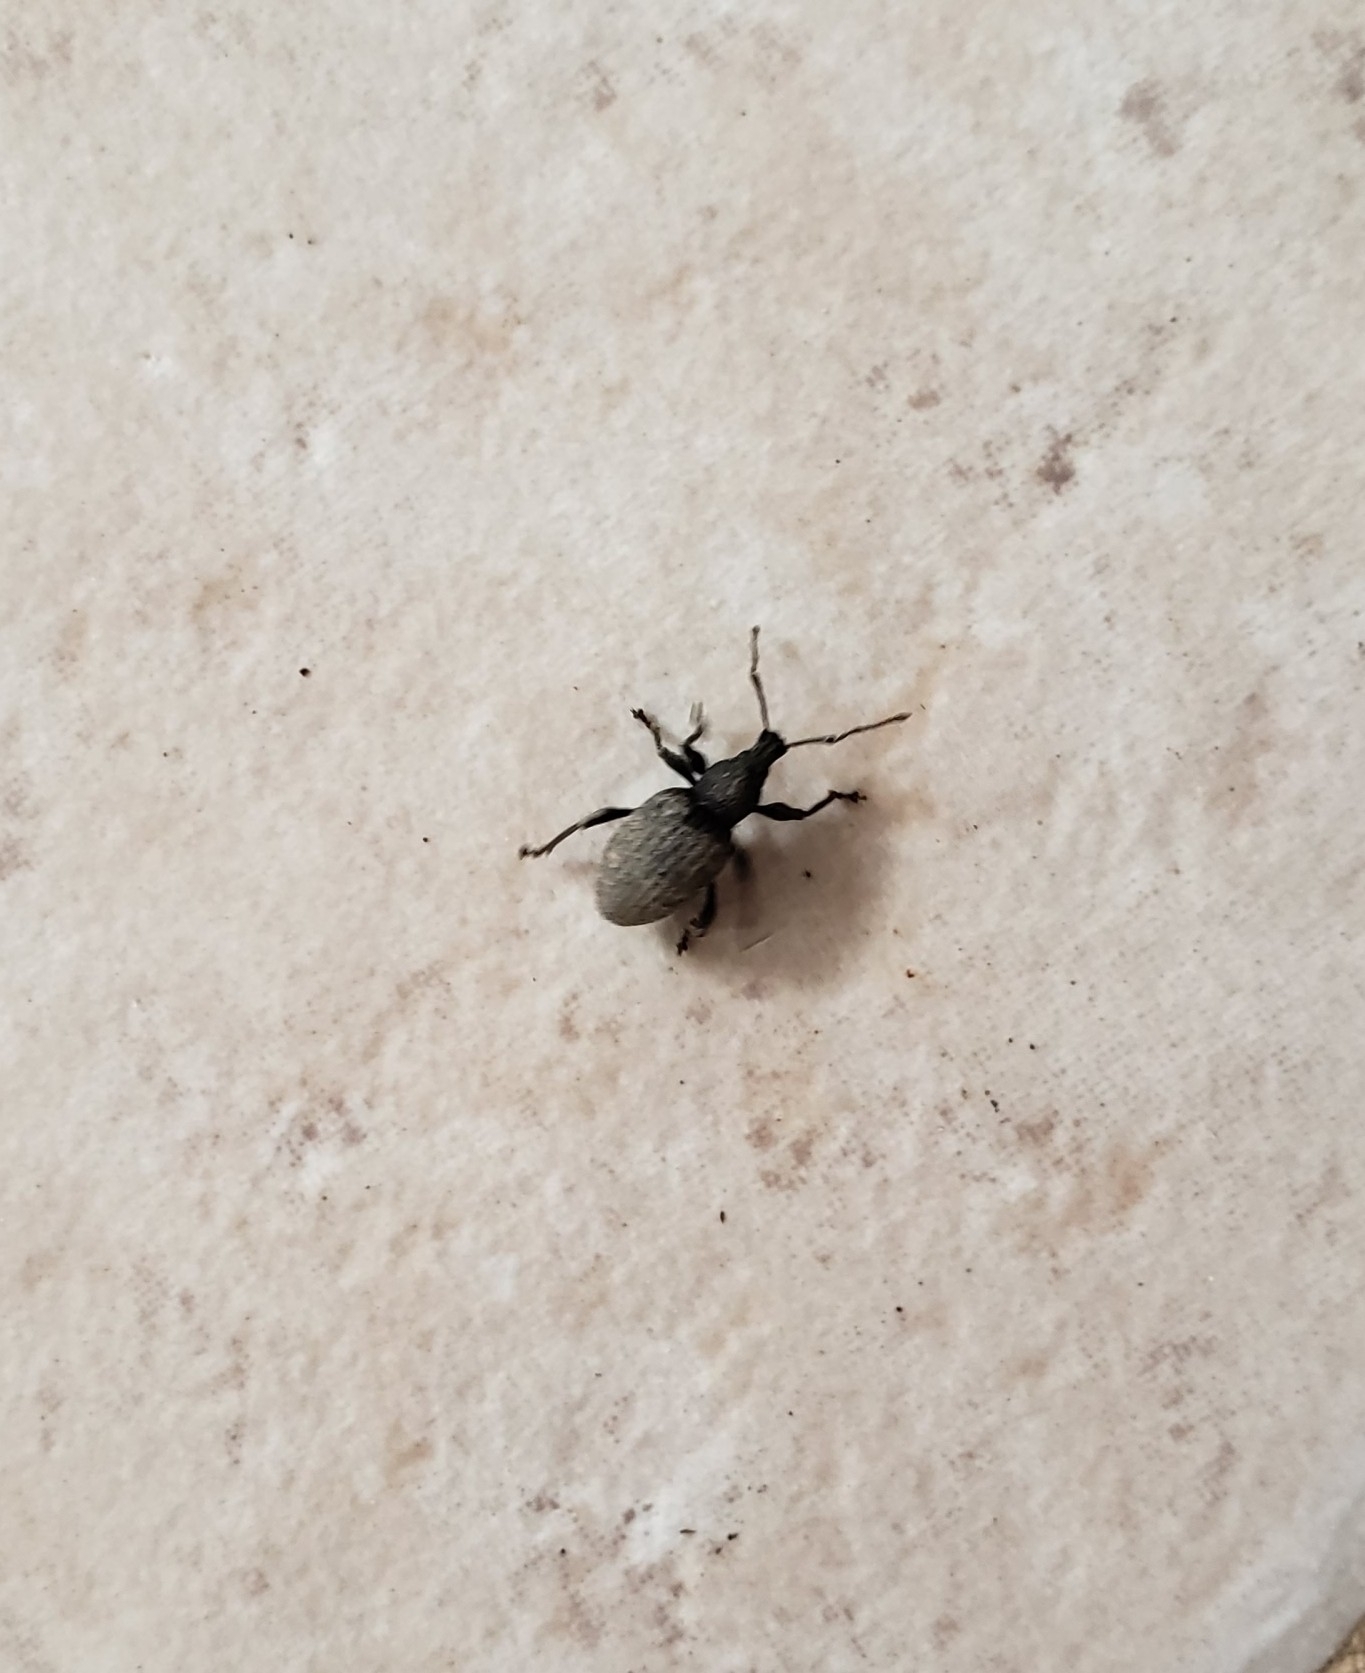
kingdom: Animalia
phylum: Arthropoda
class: Insecta
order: Coleoptera
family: Curculionidae
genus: Otiorhynchus
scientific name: Otiorhynchus sulcatus
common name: Black vine weevil
